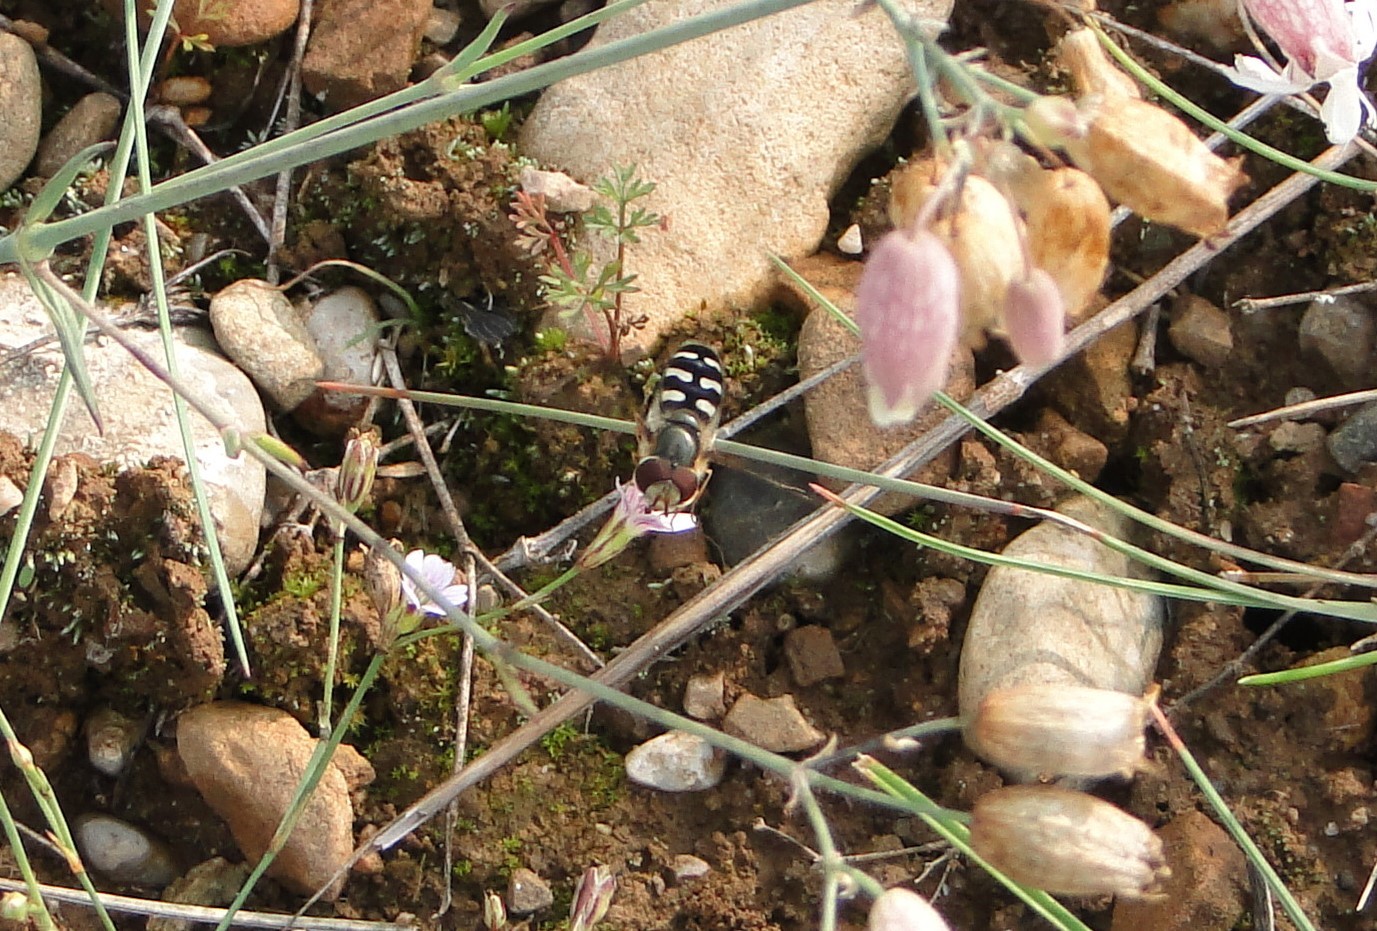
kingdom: Animalia
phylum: Arthropoda
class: Insecta
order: Diptera
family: Syrphidae
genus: Scaeva
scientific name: Scaeva pyrastri
